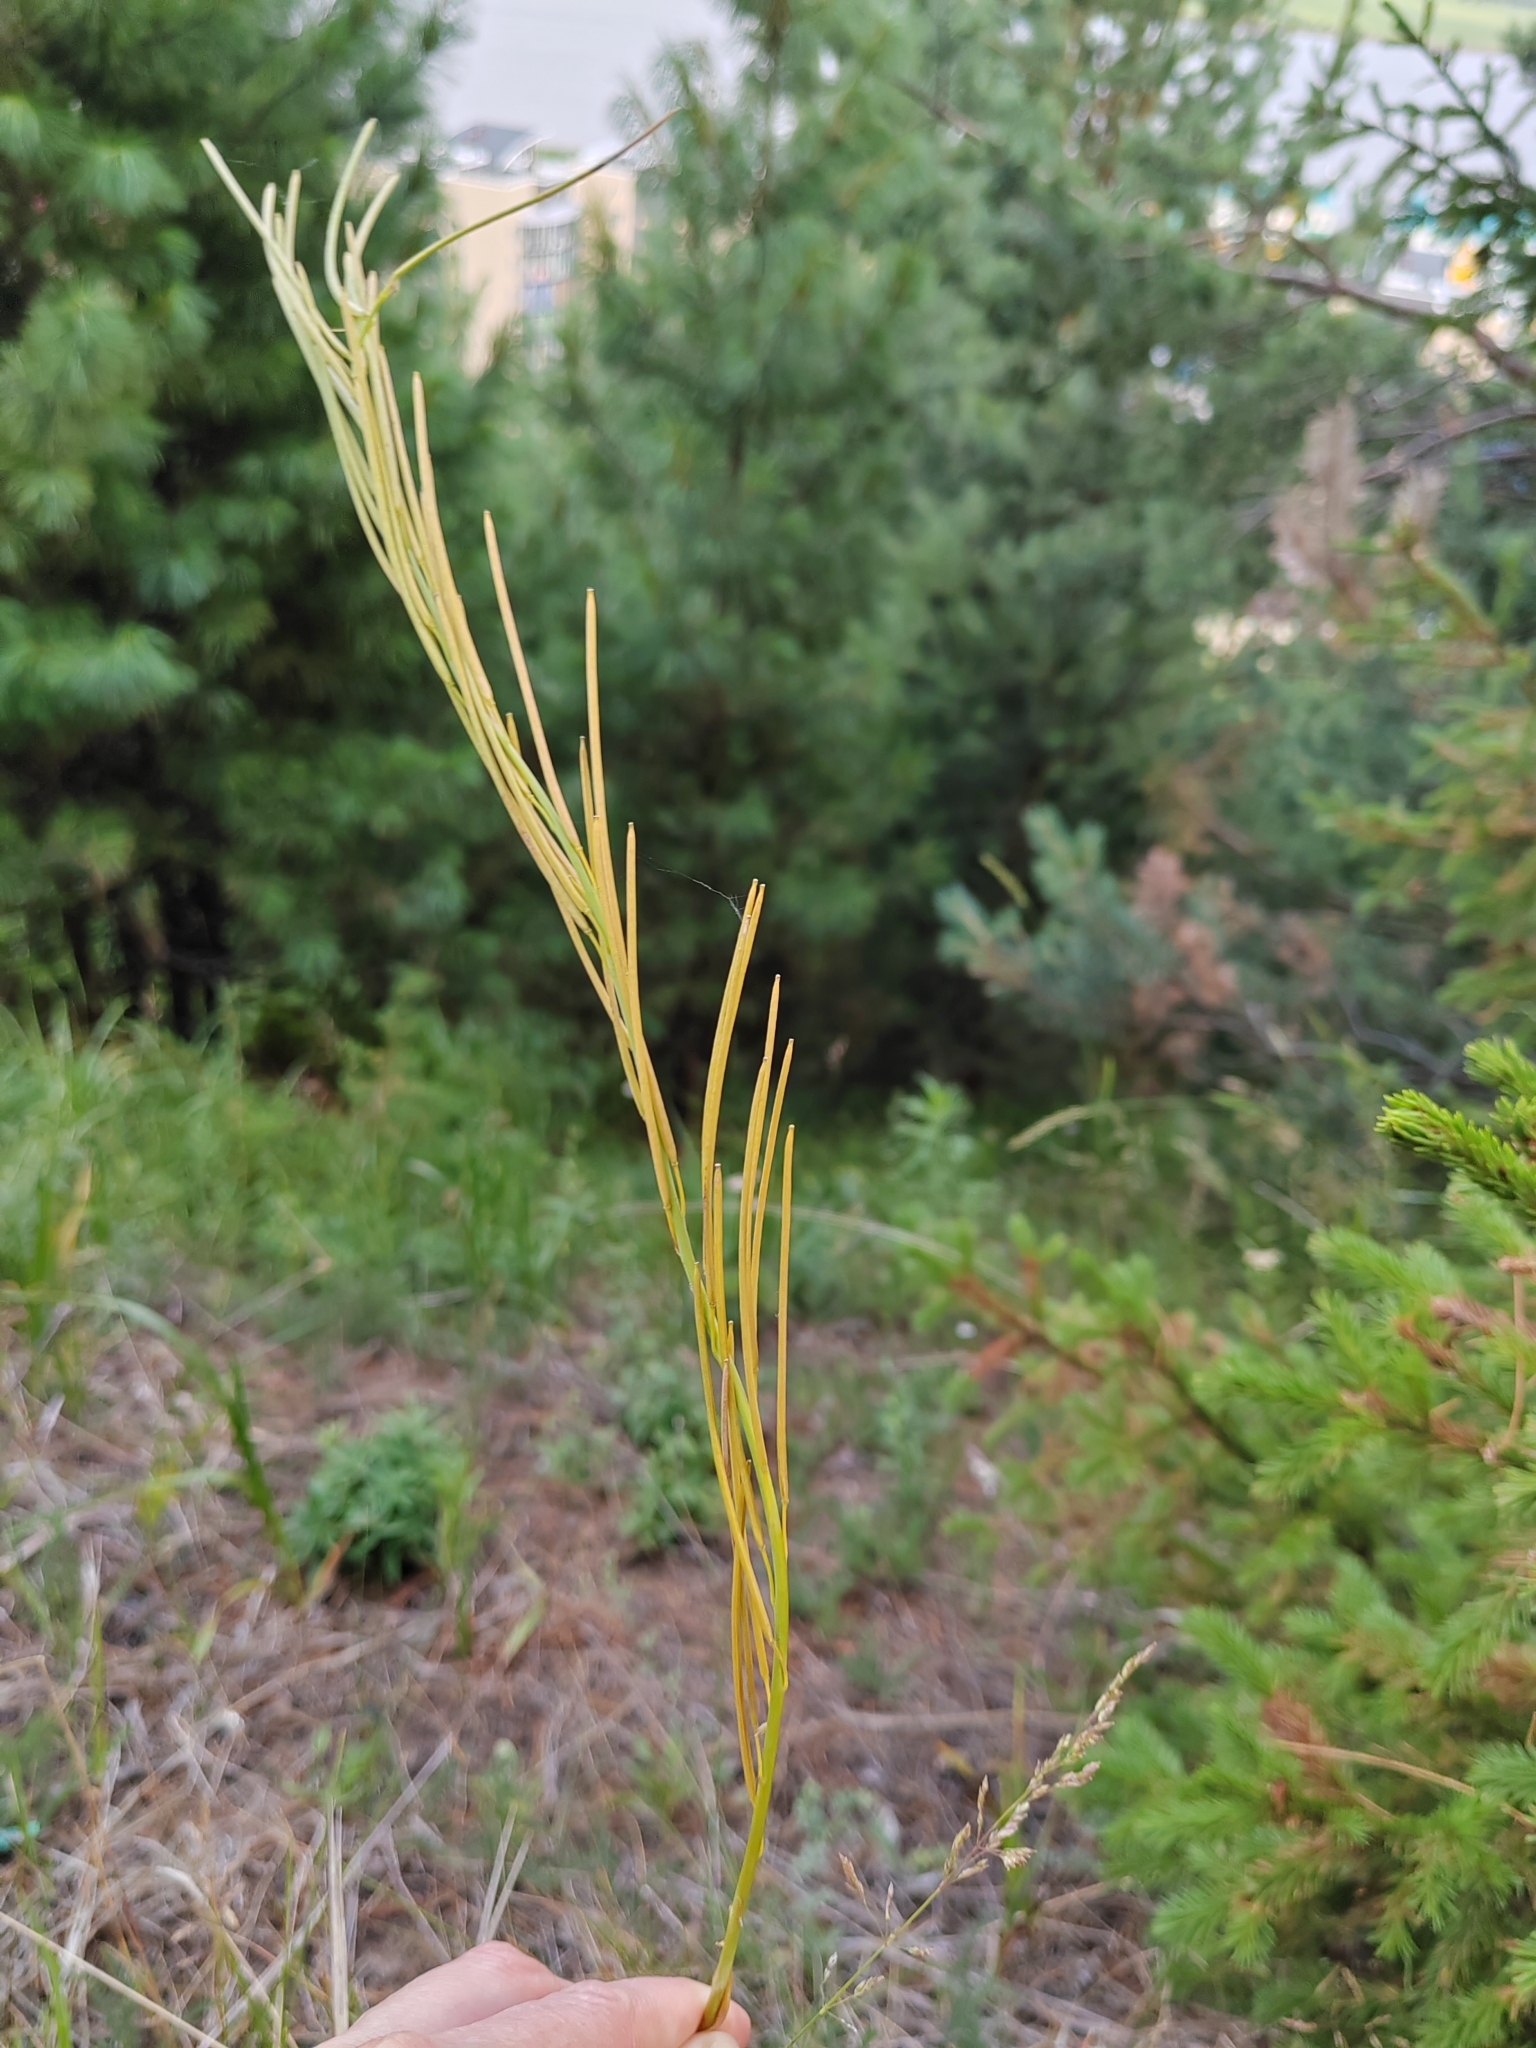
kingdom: Plantae
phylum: Tracheophyta
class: Magnoliopsida
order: Brassicales
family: Brassicaceae
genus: Turritis
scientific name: Turritis glabra
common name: Tower rockcress
